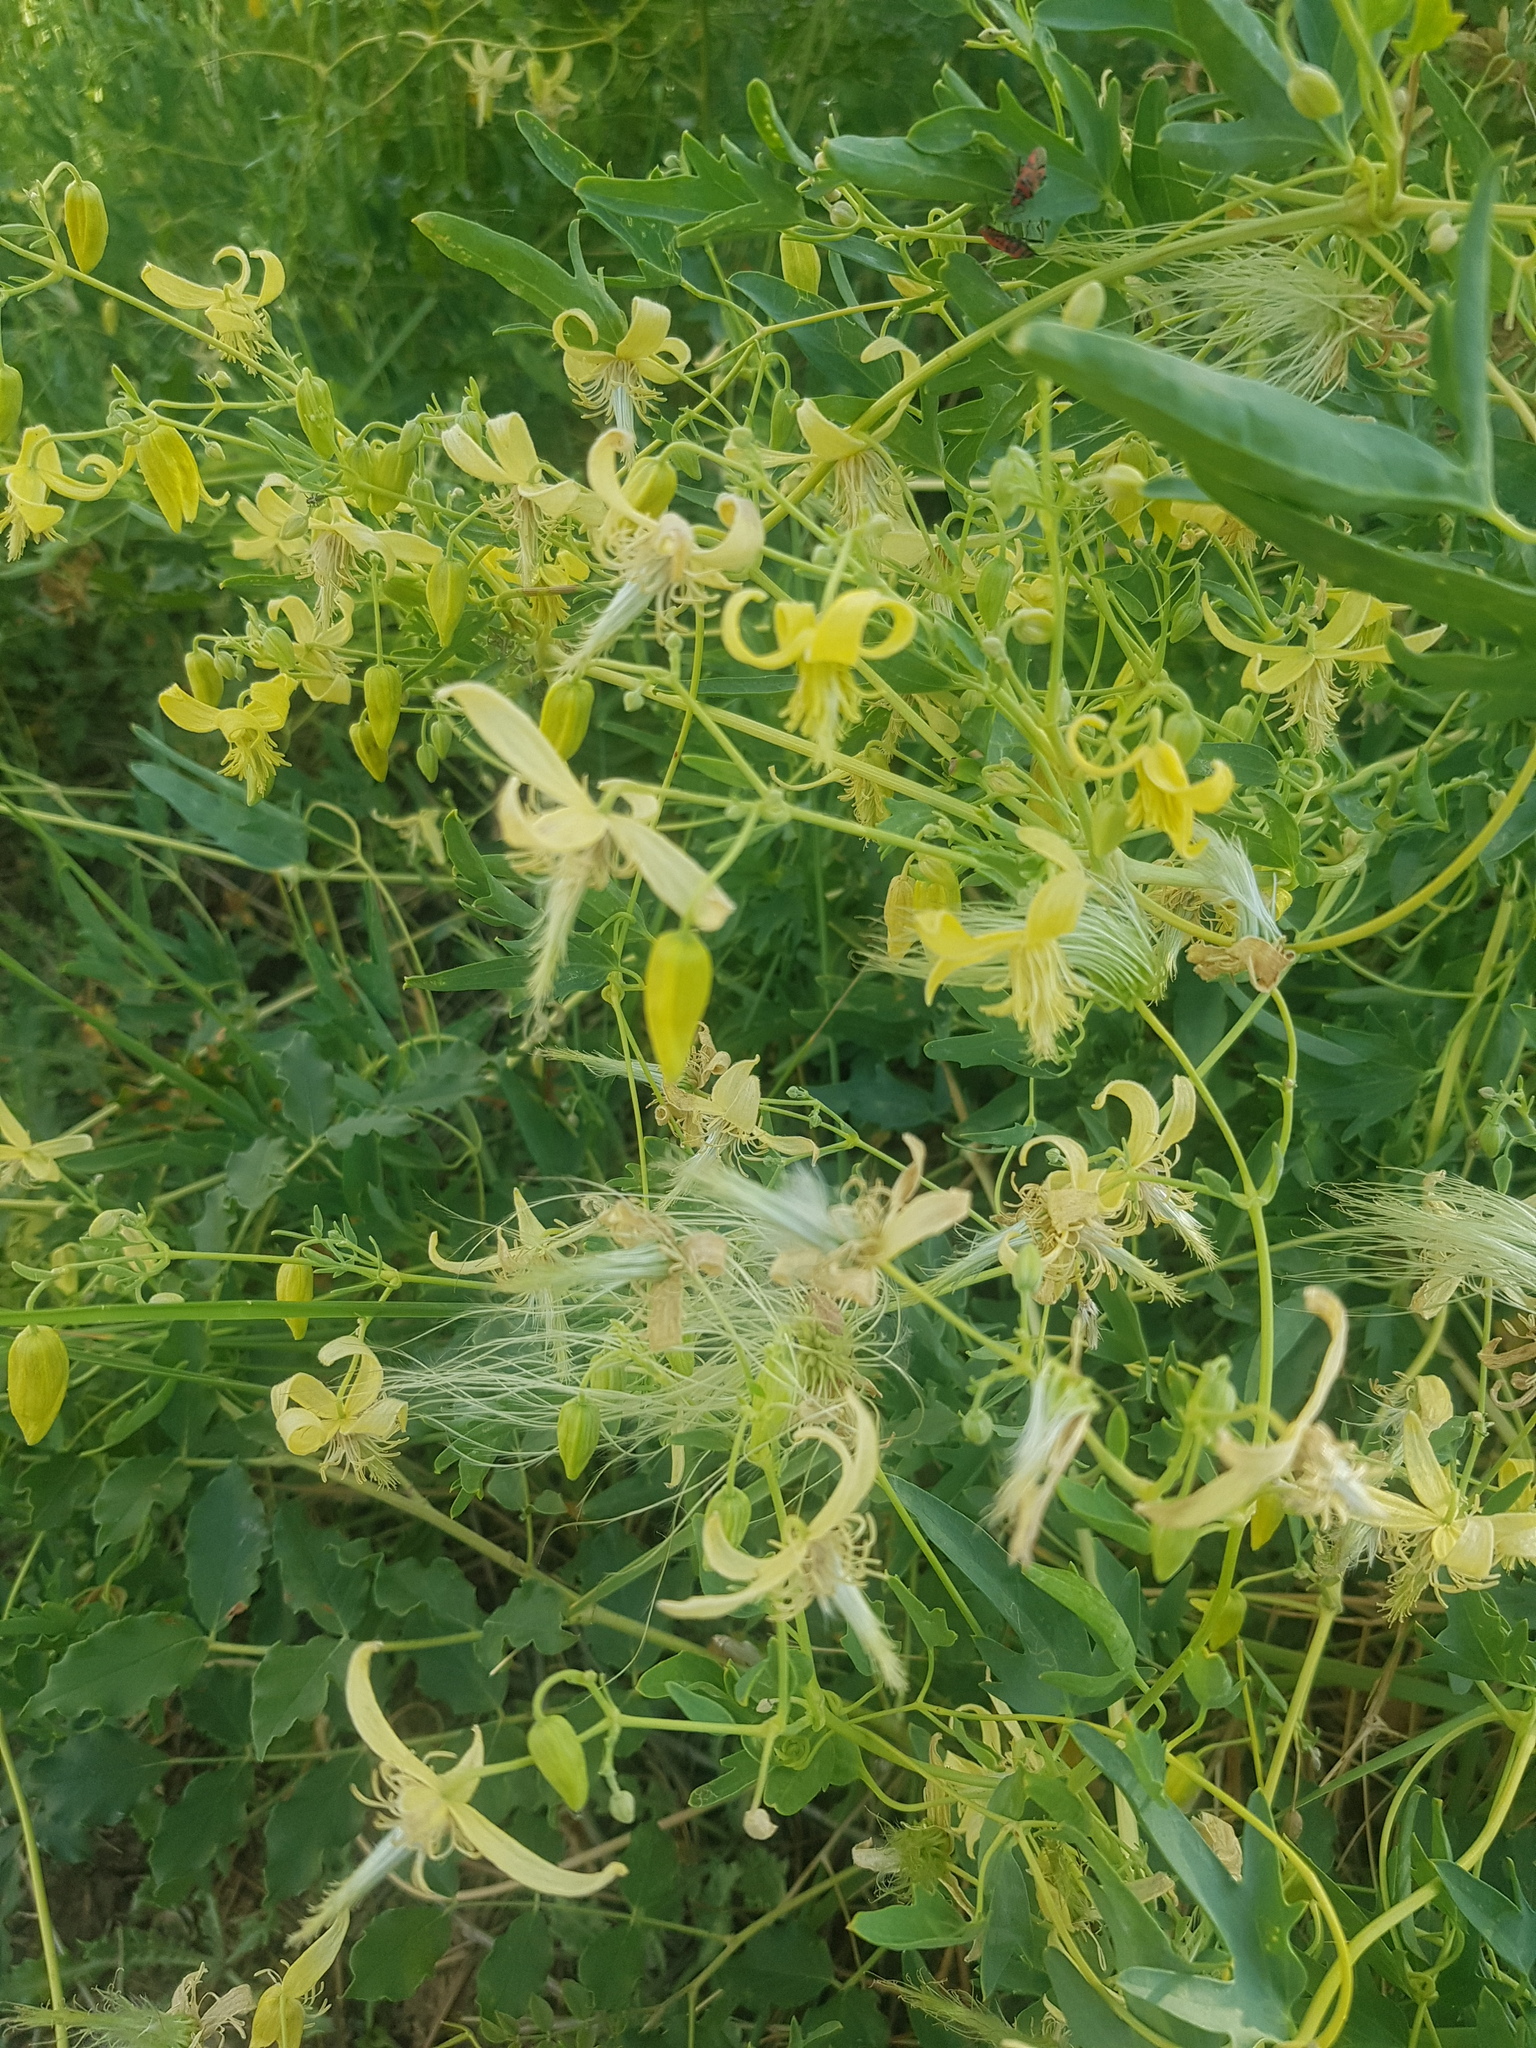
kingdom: Plantae
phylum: Tracheophyta
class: Magnoliopsida
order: Ranunculales
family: Ranunculaceae
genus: Clematis
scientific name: Clematis orientalis
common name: Oriental virgin's-bower
